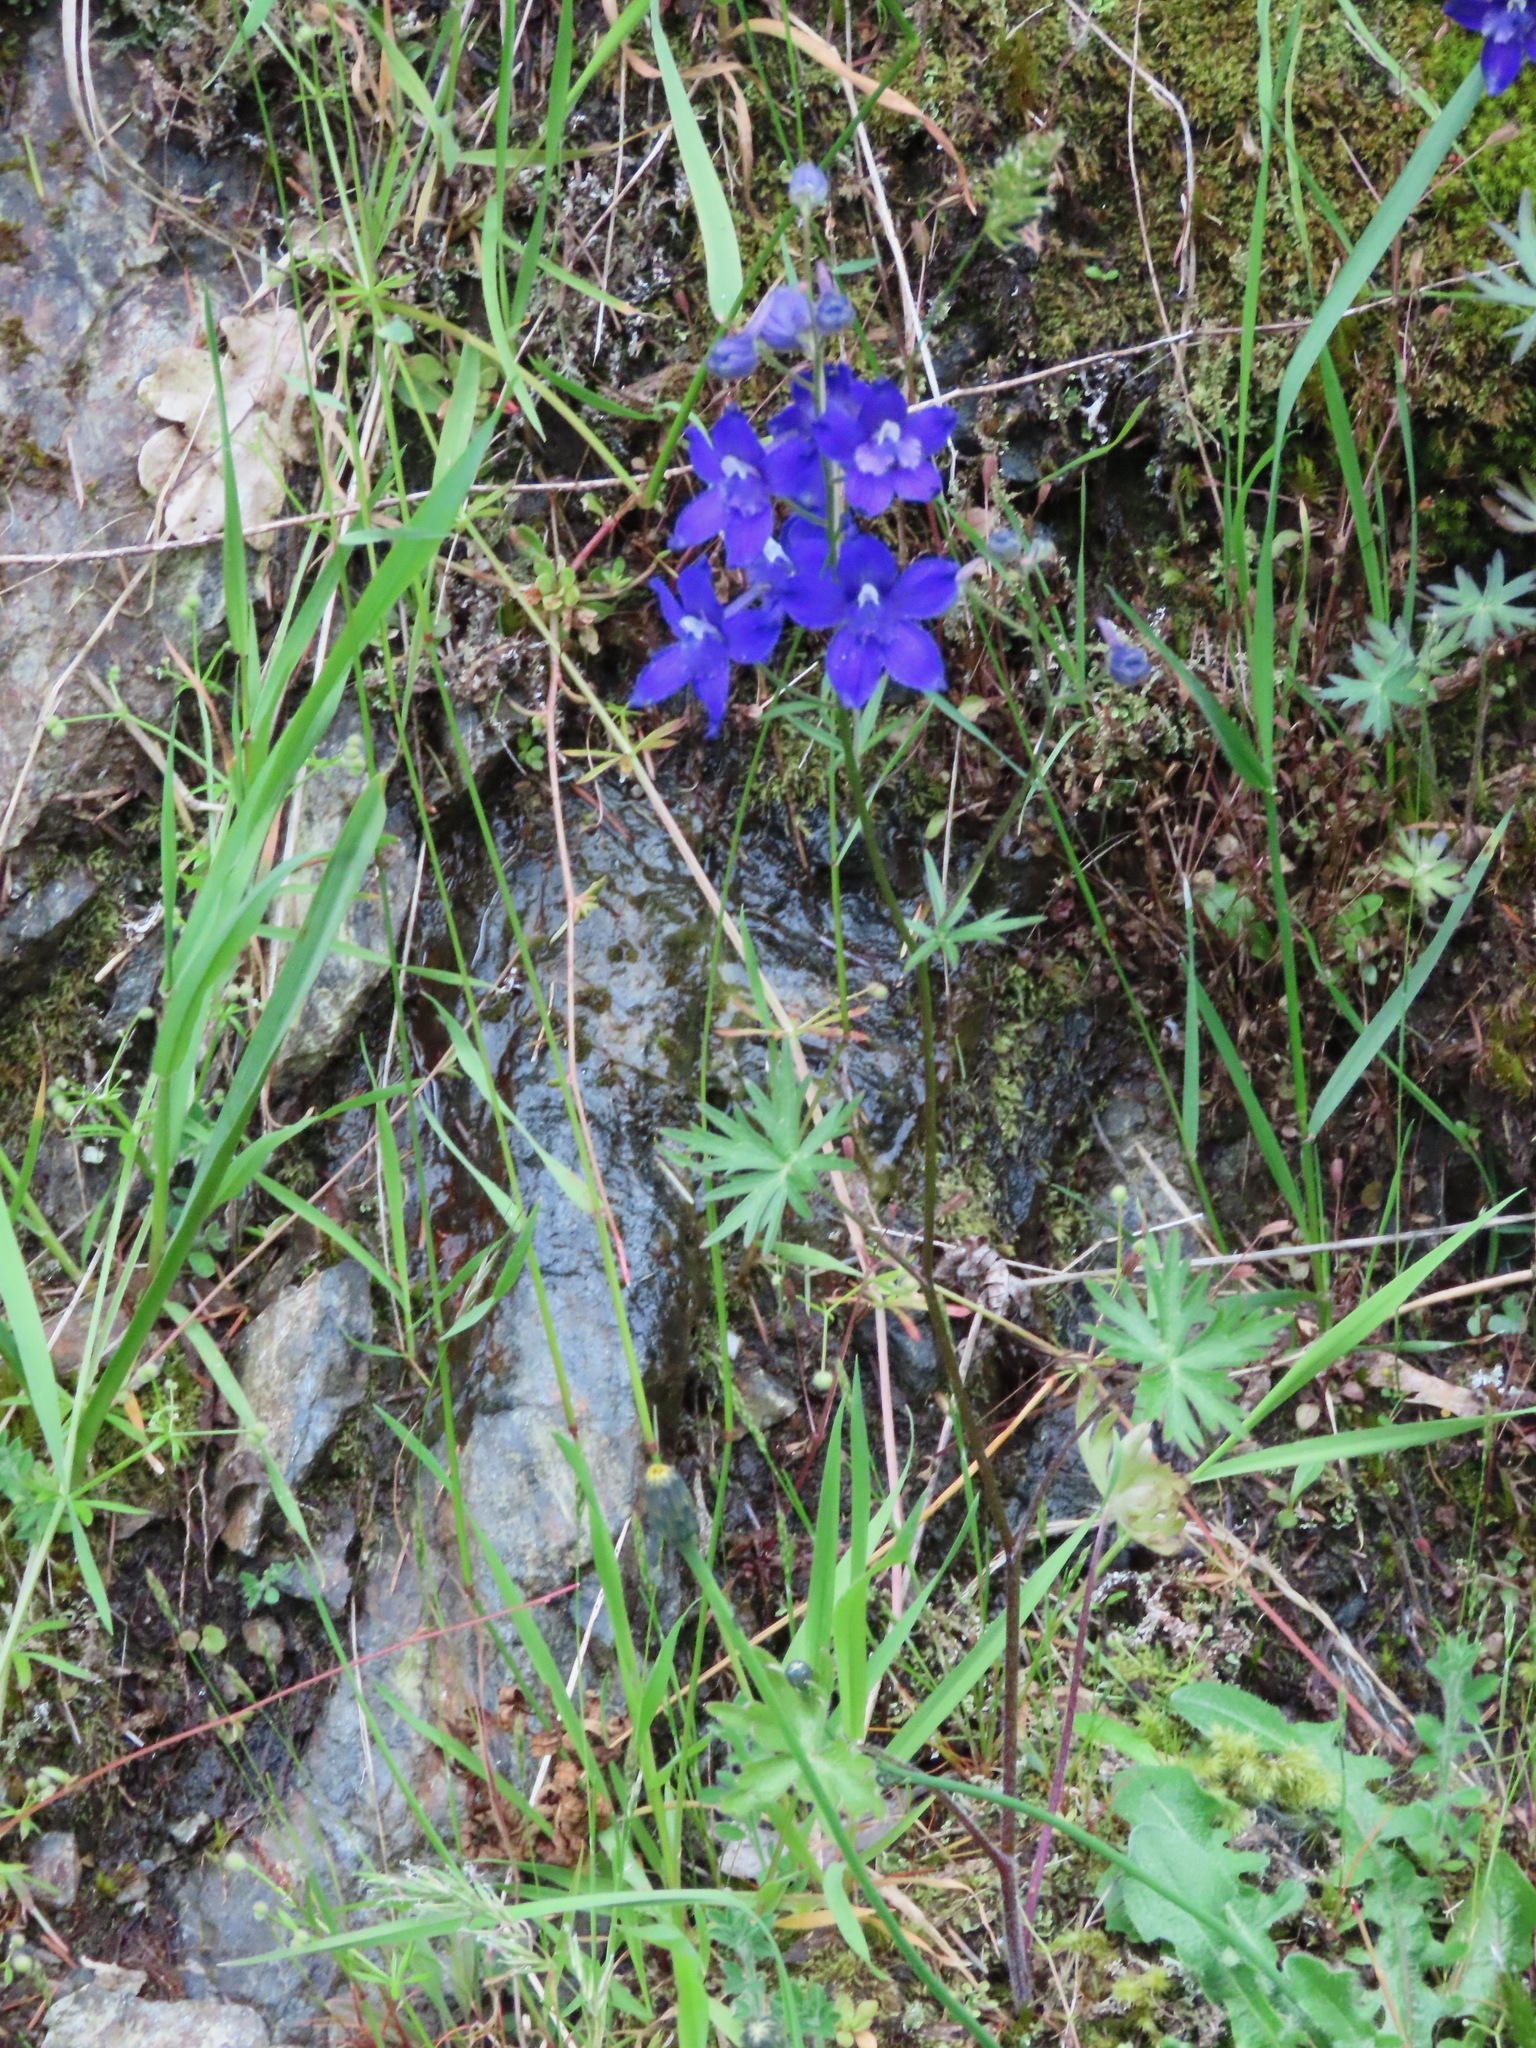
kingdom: Plantae
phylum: Tracheophyta
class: Magnoliopsida
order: Ranunculales
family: Ranunculaceae
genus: Delphinium
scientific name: Delphinium menziesii
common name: Menzies's larkspur
